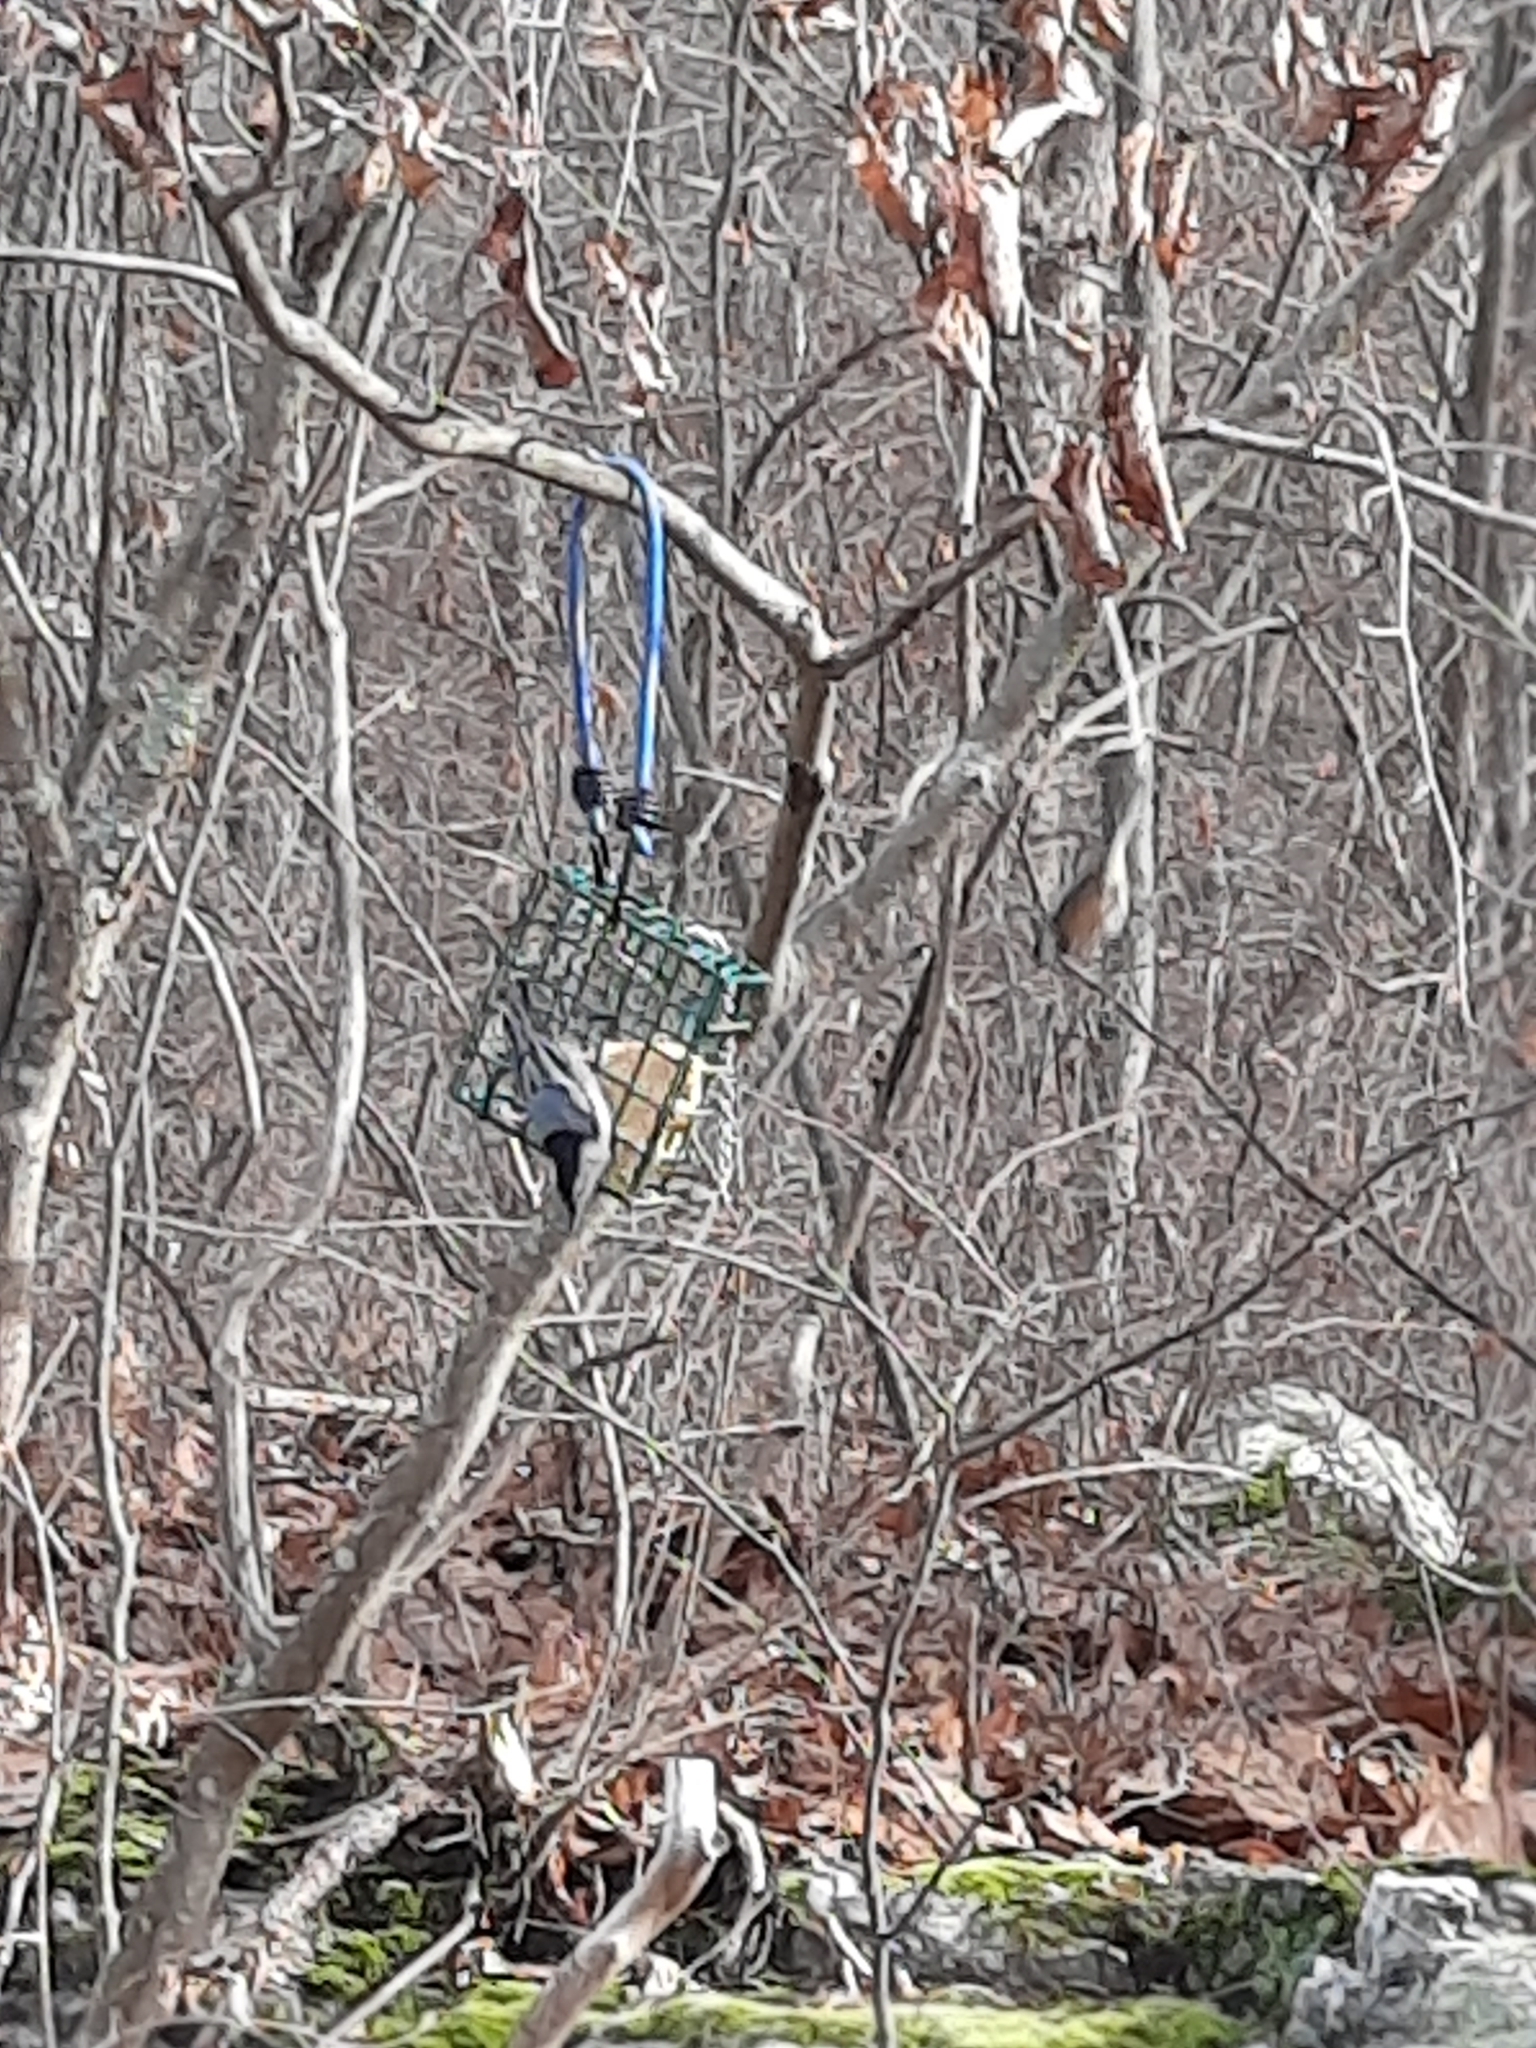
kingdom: Animalia
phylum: Chordata
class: Aves
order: Passeriformes
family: Sittidae
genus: Sitta
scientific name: Sitta carolinensis
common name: White-breasted nuthatch
